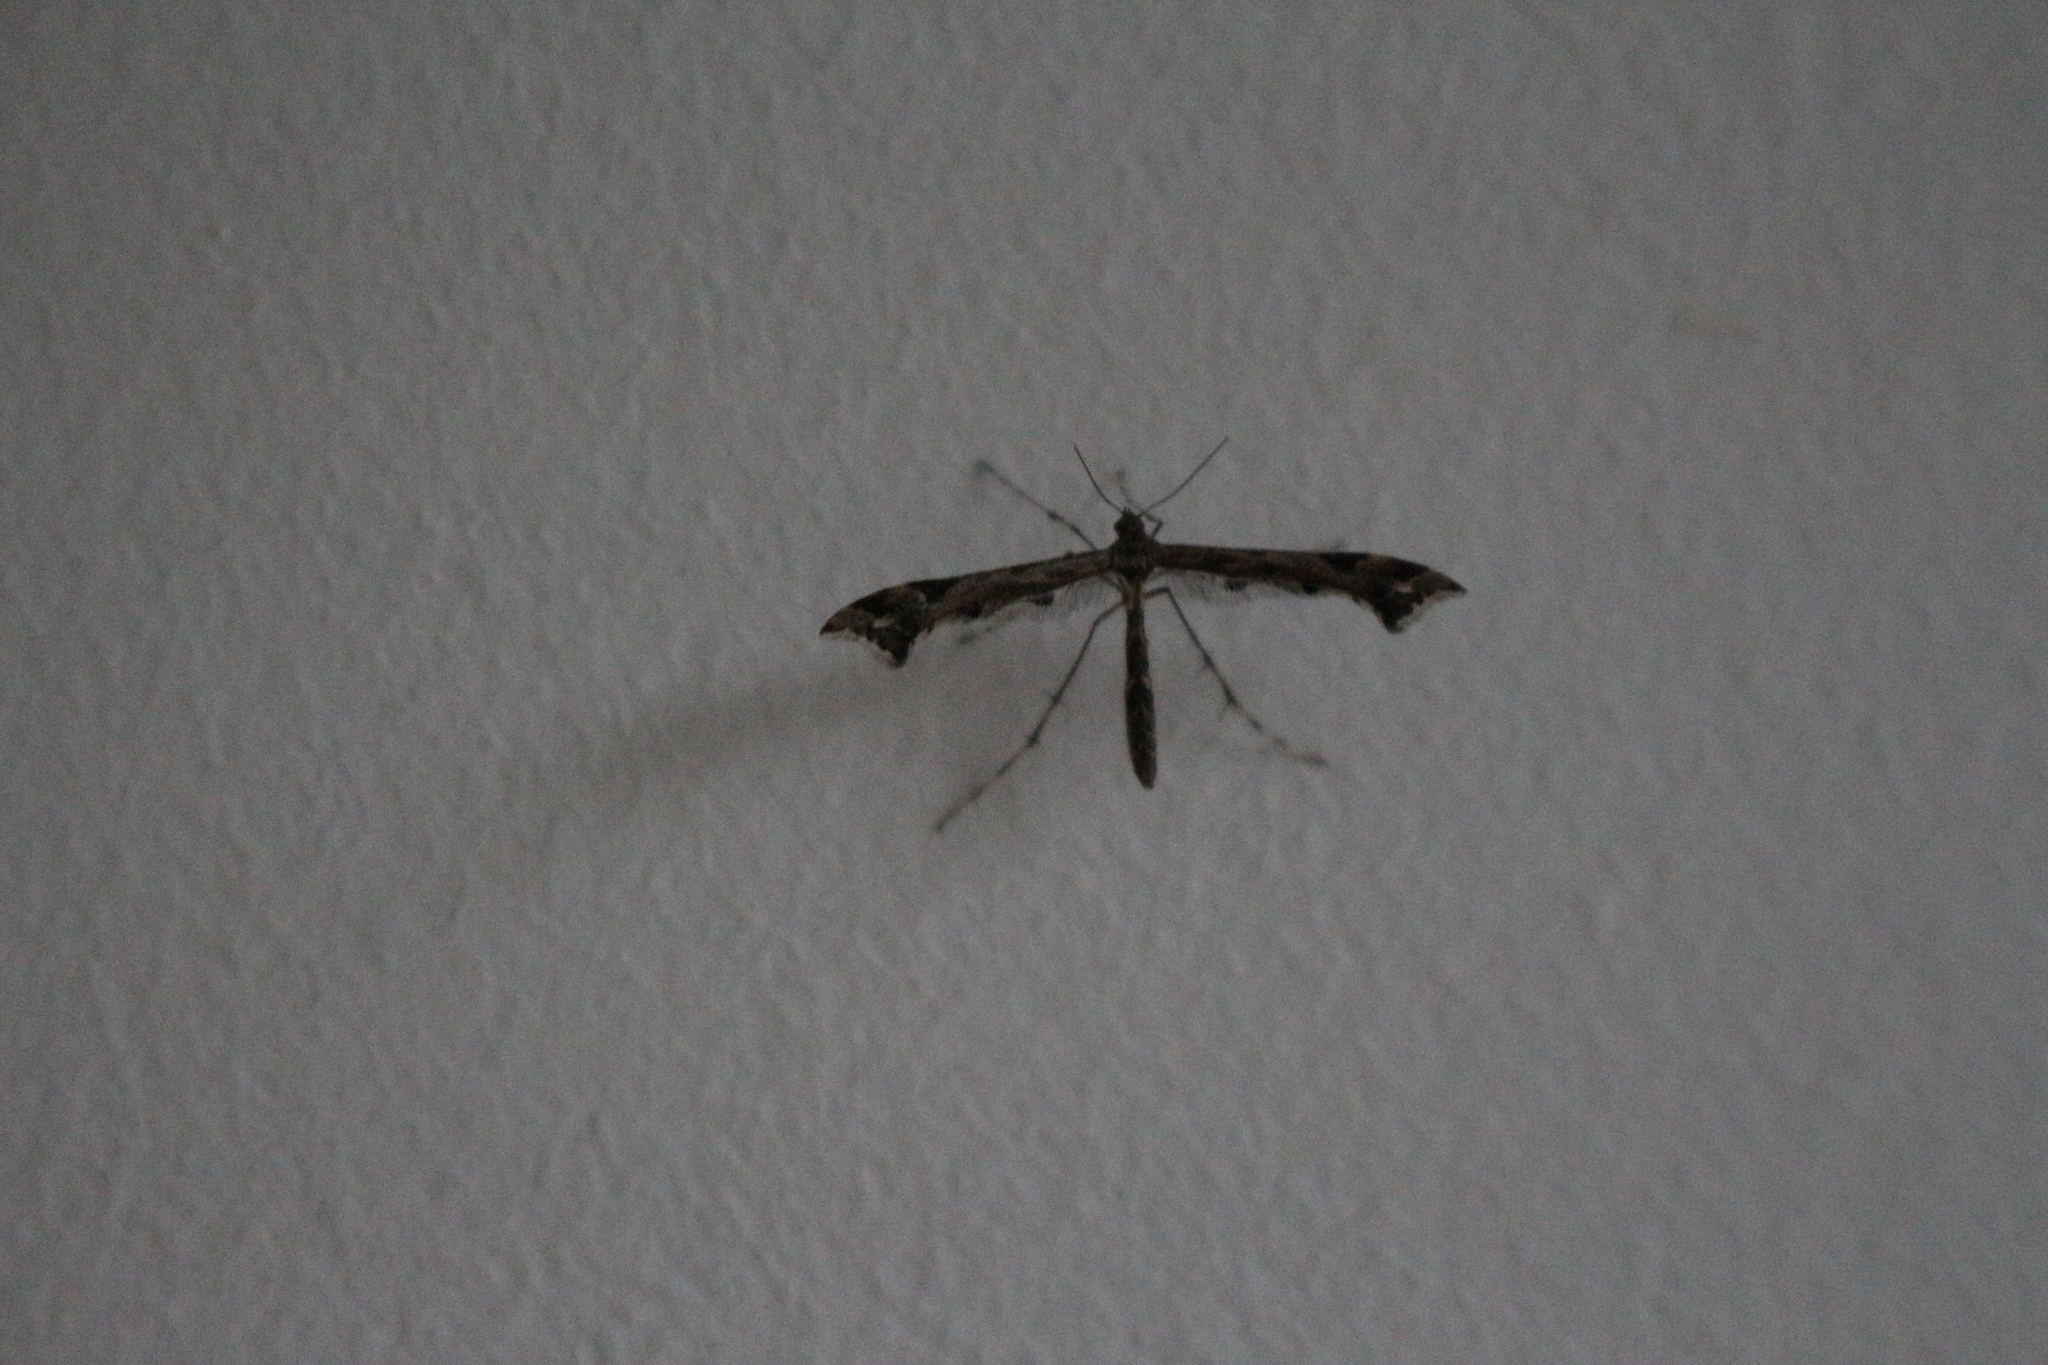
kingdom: Animalia
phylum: Arthropoda
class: Insecta
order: Lepidoptera
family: Pterophoridae
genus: Amblyptilia
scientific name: Amblyptilia acanthadactyla
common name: Beautiful plume
